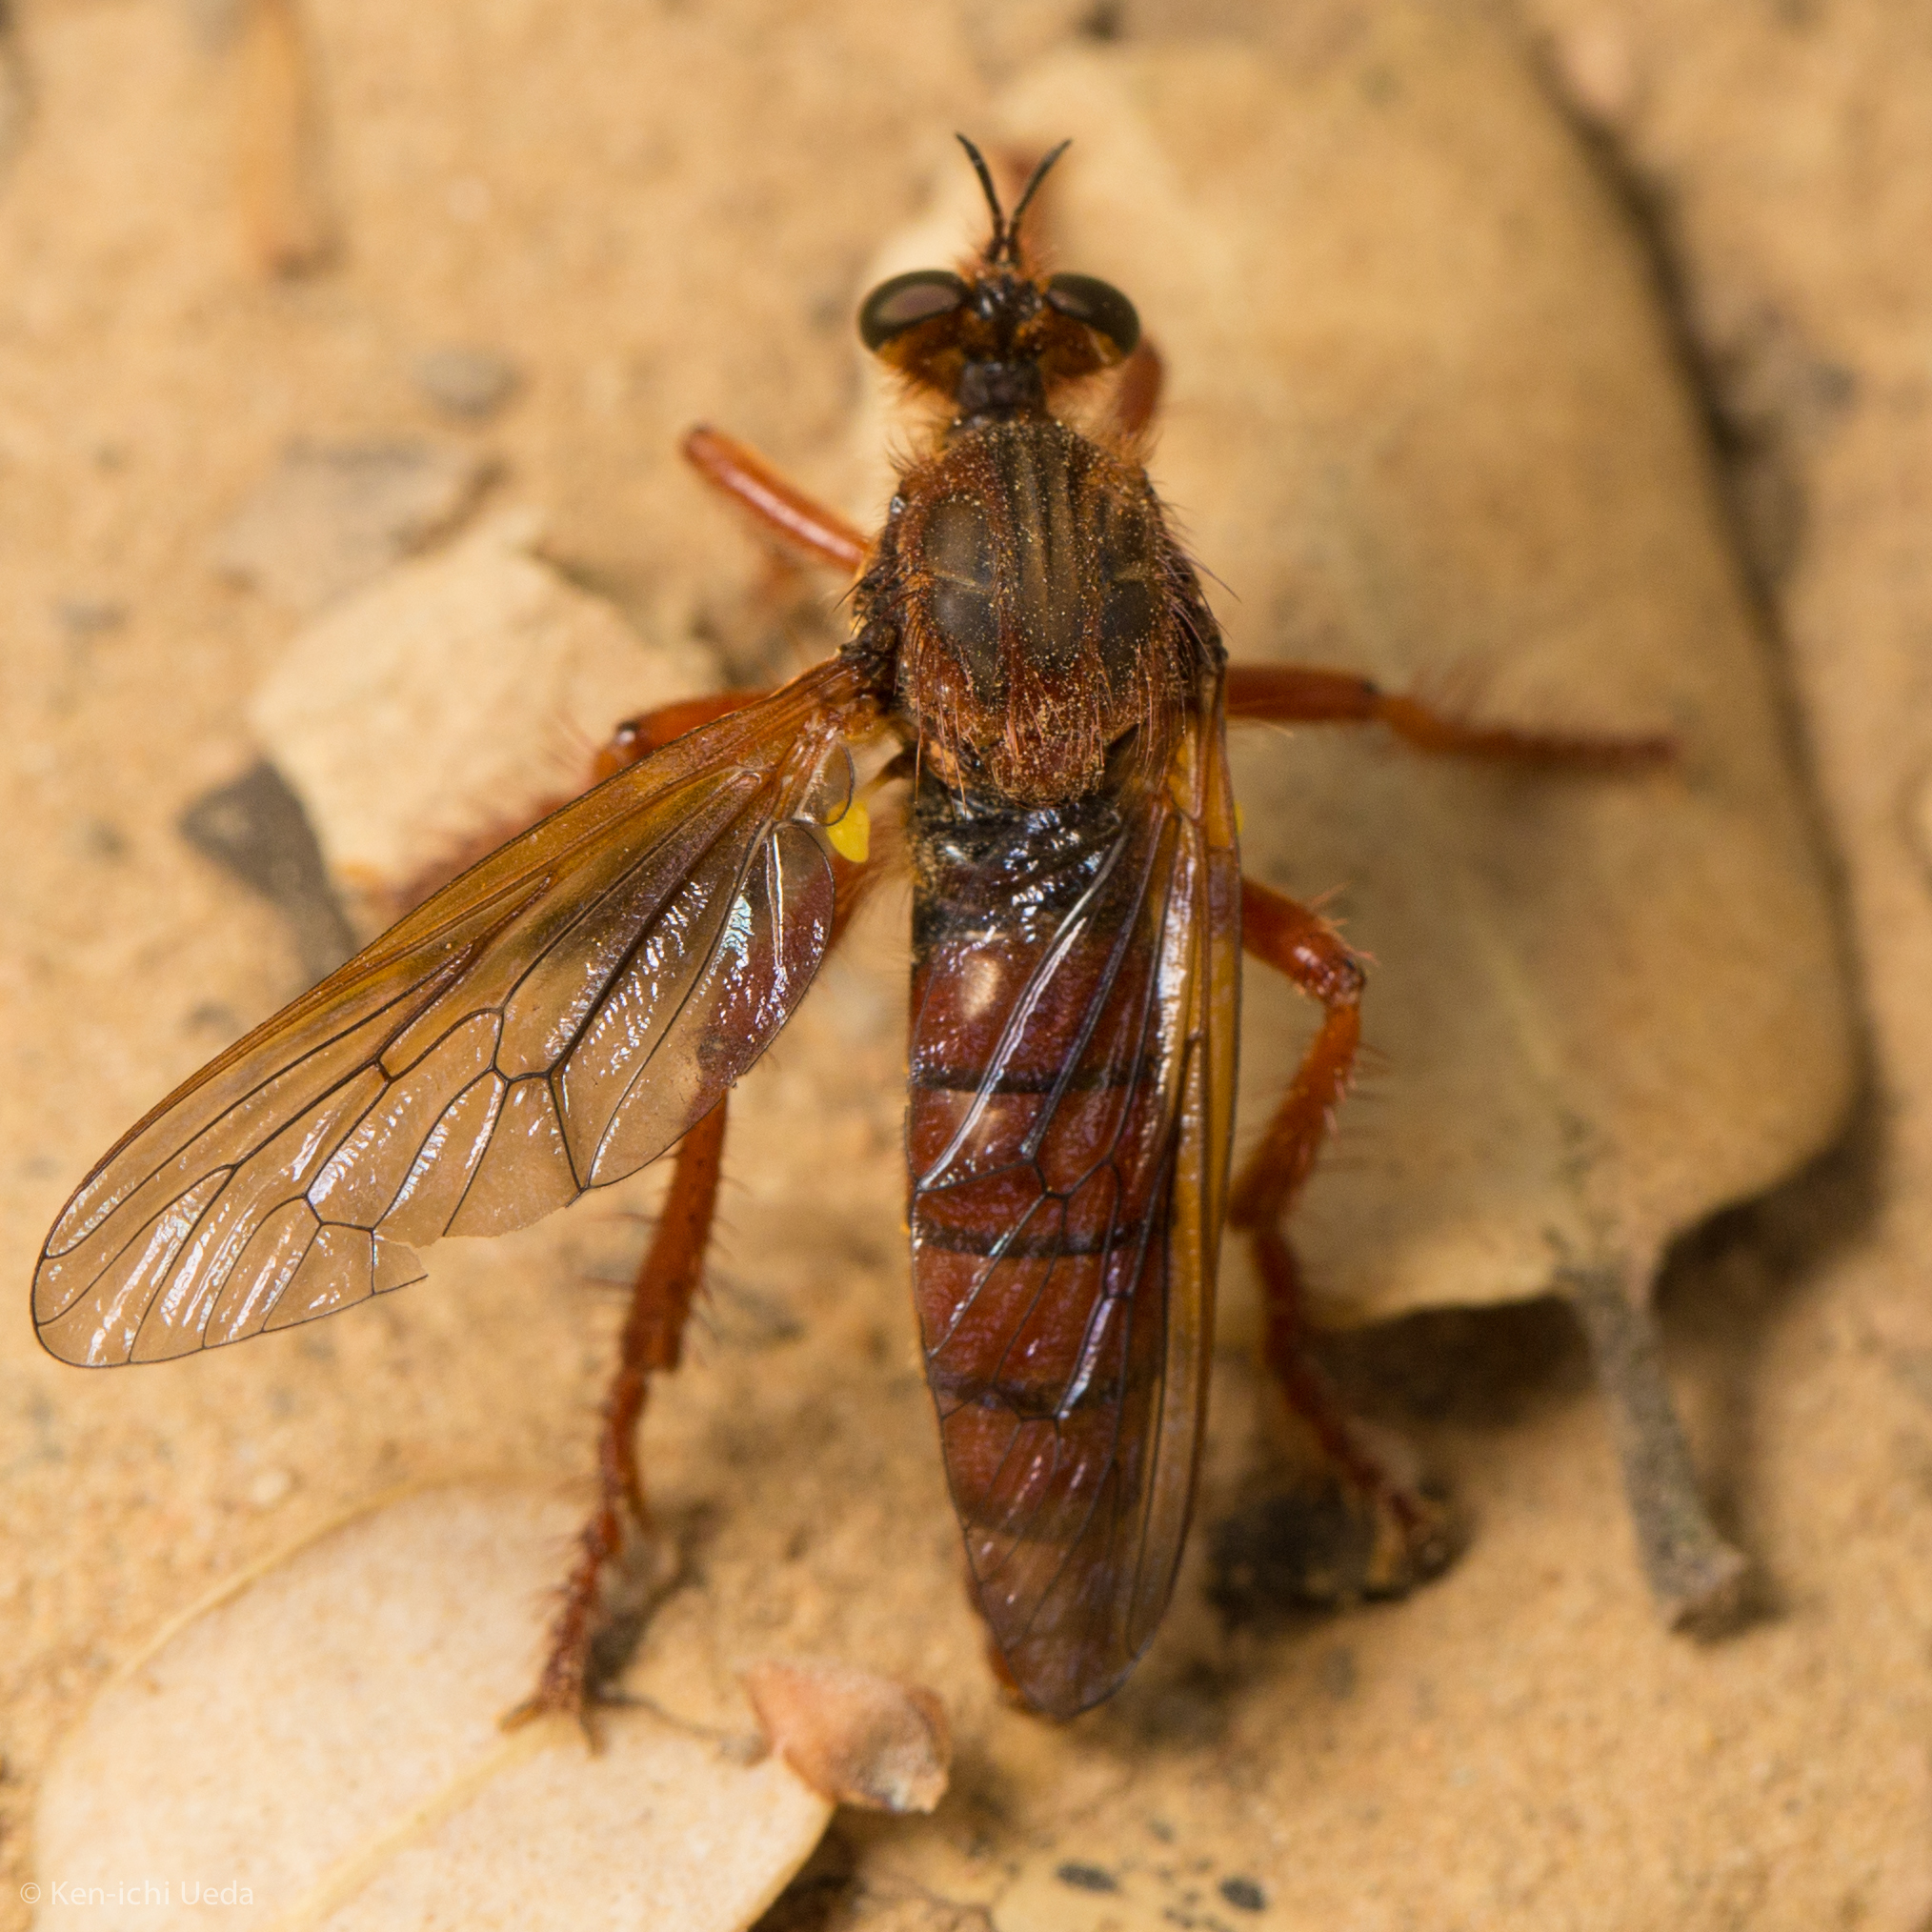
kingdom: Animalia
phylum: Arthropoda
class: Insecta
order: Diptera
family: Asilidae
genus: Callinicus
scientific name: Callinicus calcaneus
